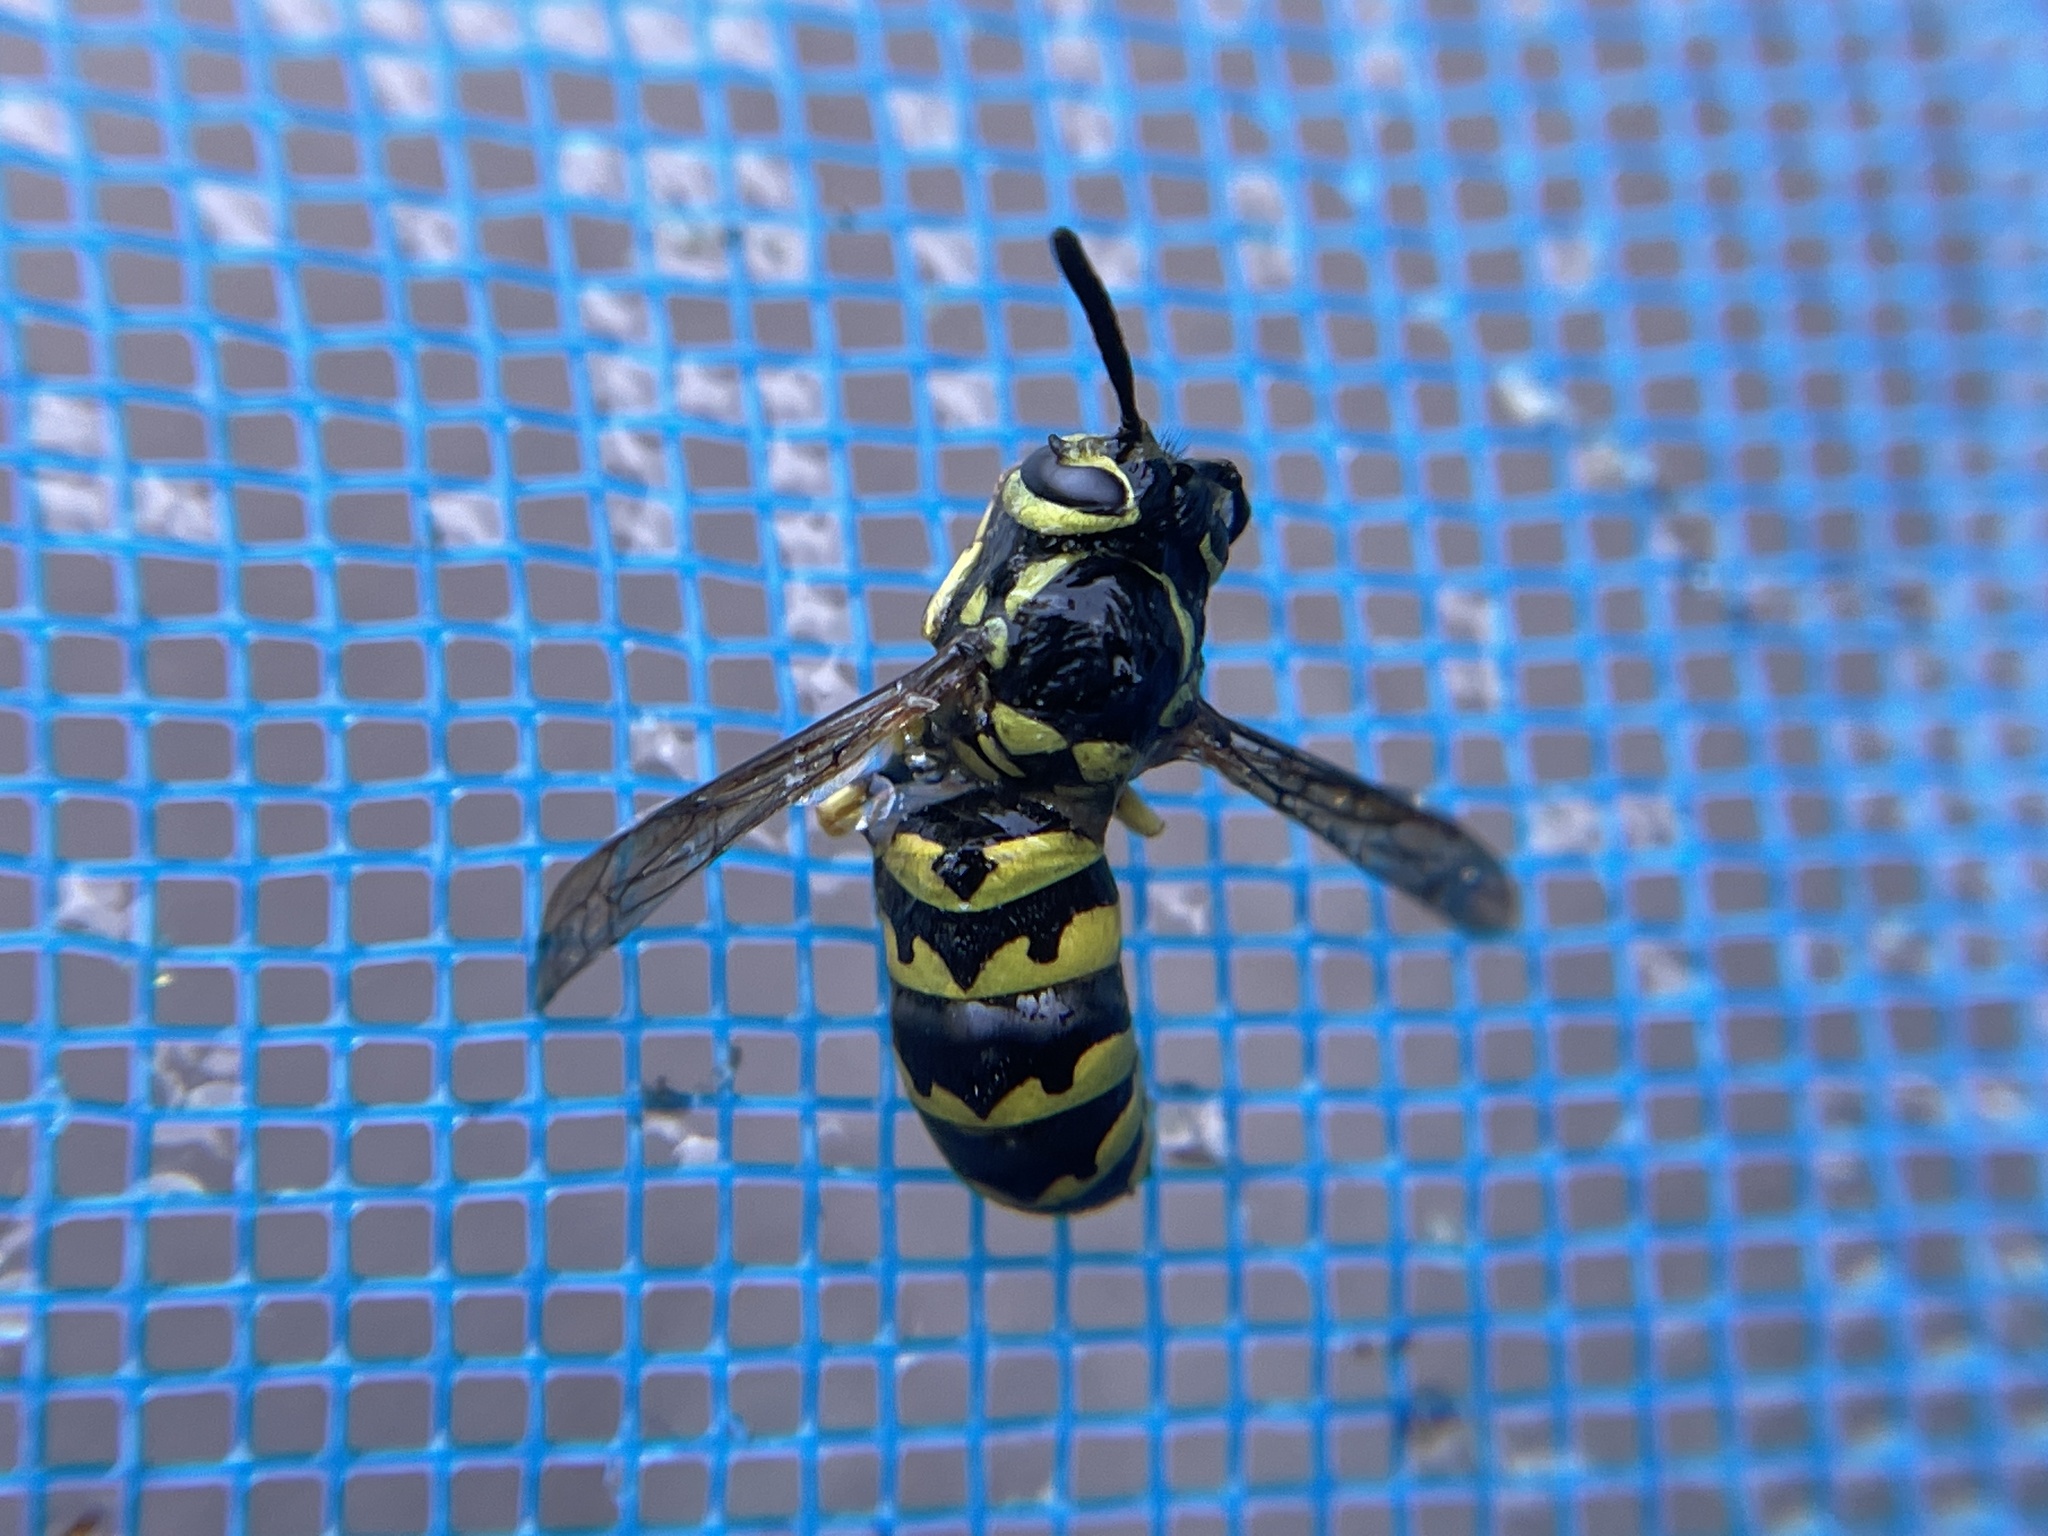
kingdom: Animalia
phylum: Arthropoda
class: Insecta
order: Hymenoptera
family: Vespidae
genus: Vespula
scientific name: Vespula pensylvanica
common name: Western yellowjacket
